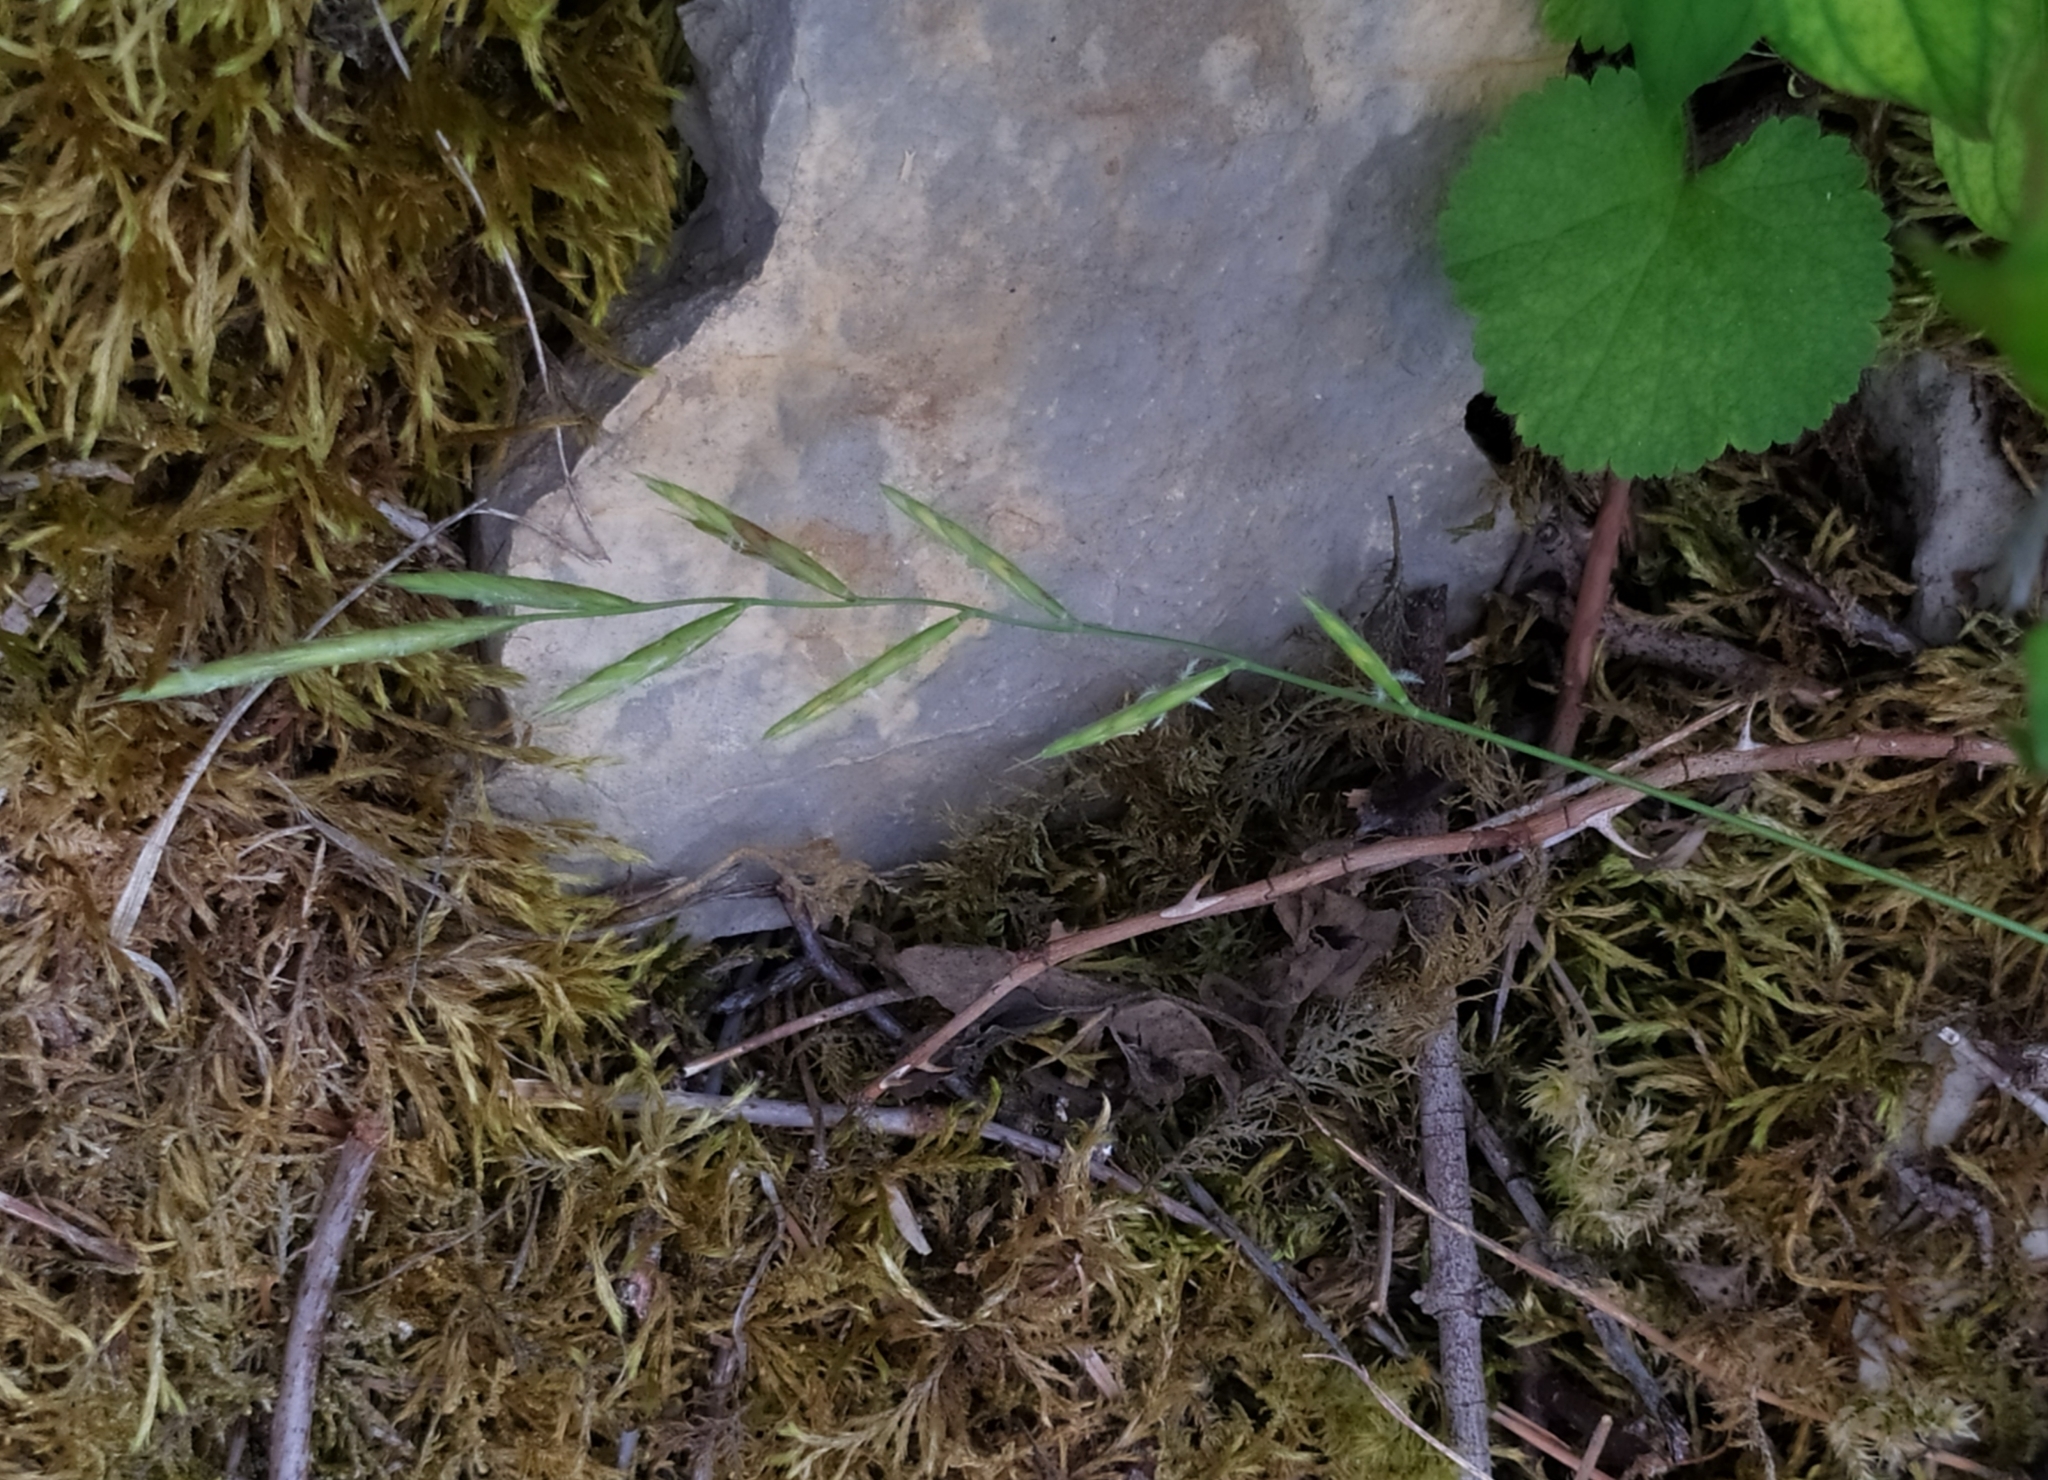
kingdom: Plantae
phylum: Tracheophyta
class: Liliopsida
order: Poales
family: Poaceae
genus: Brachypodium
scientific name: Brachypodium pinnatum
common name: Tor grass
